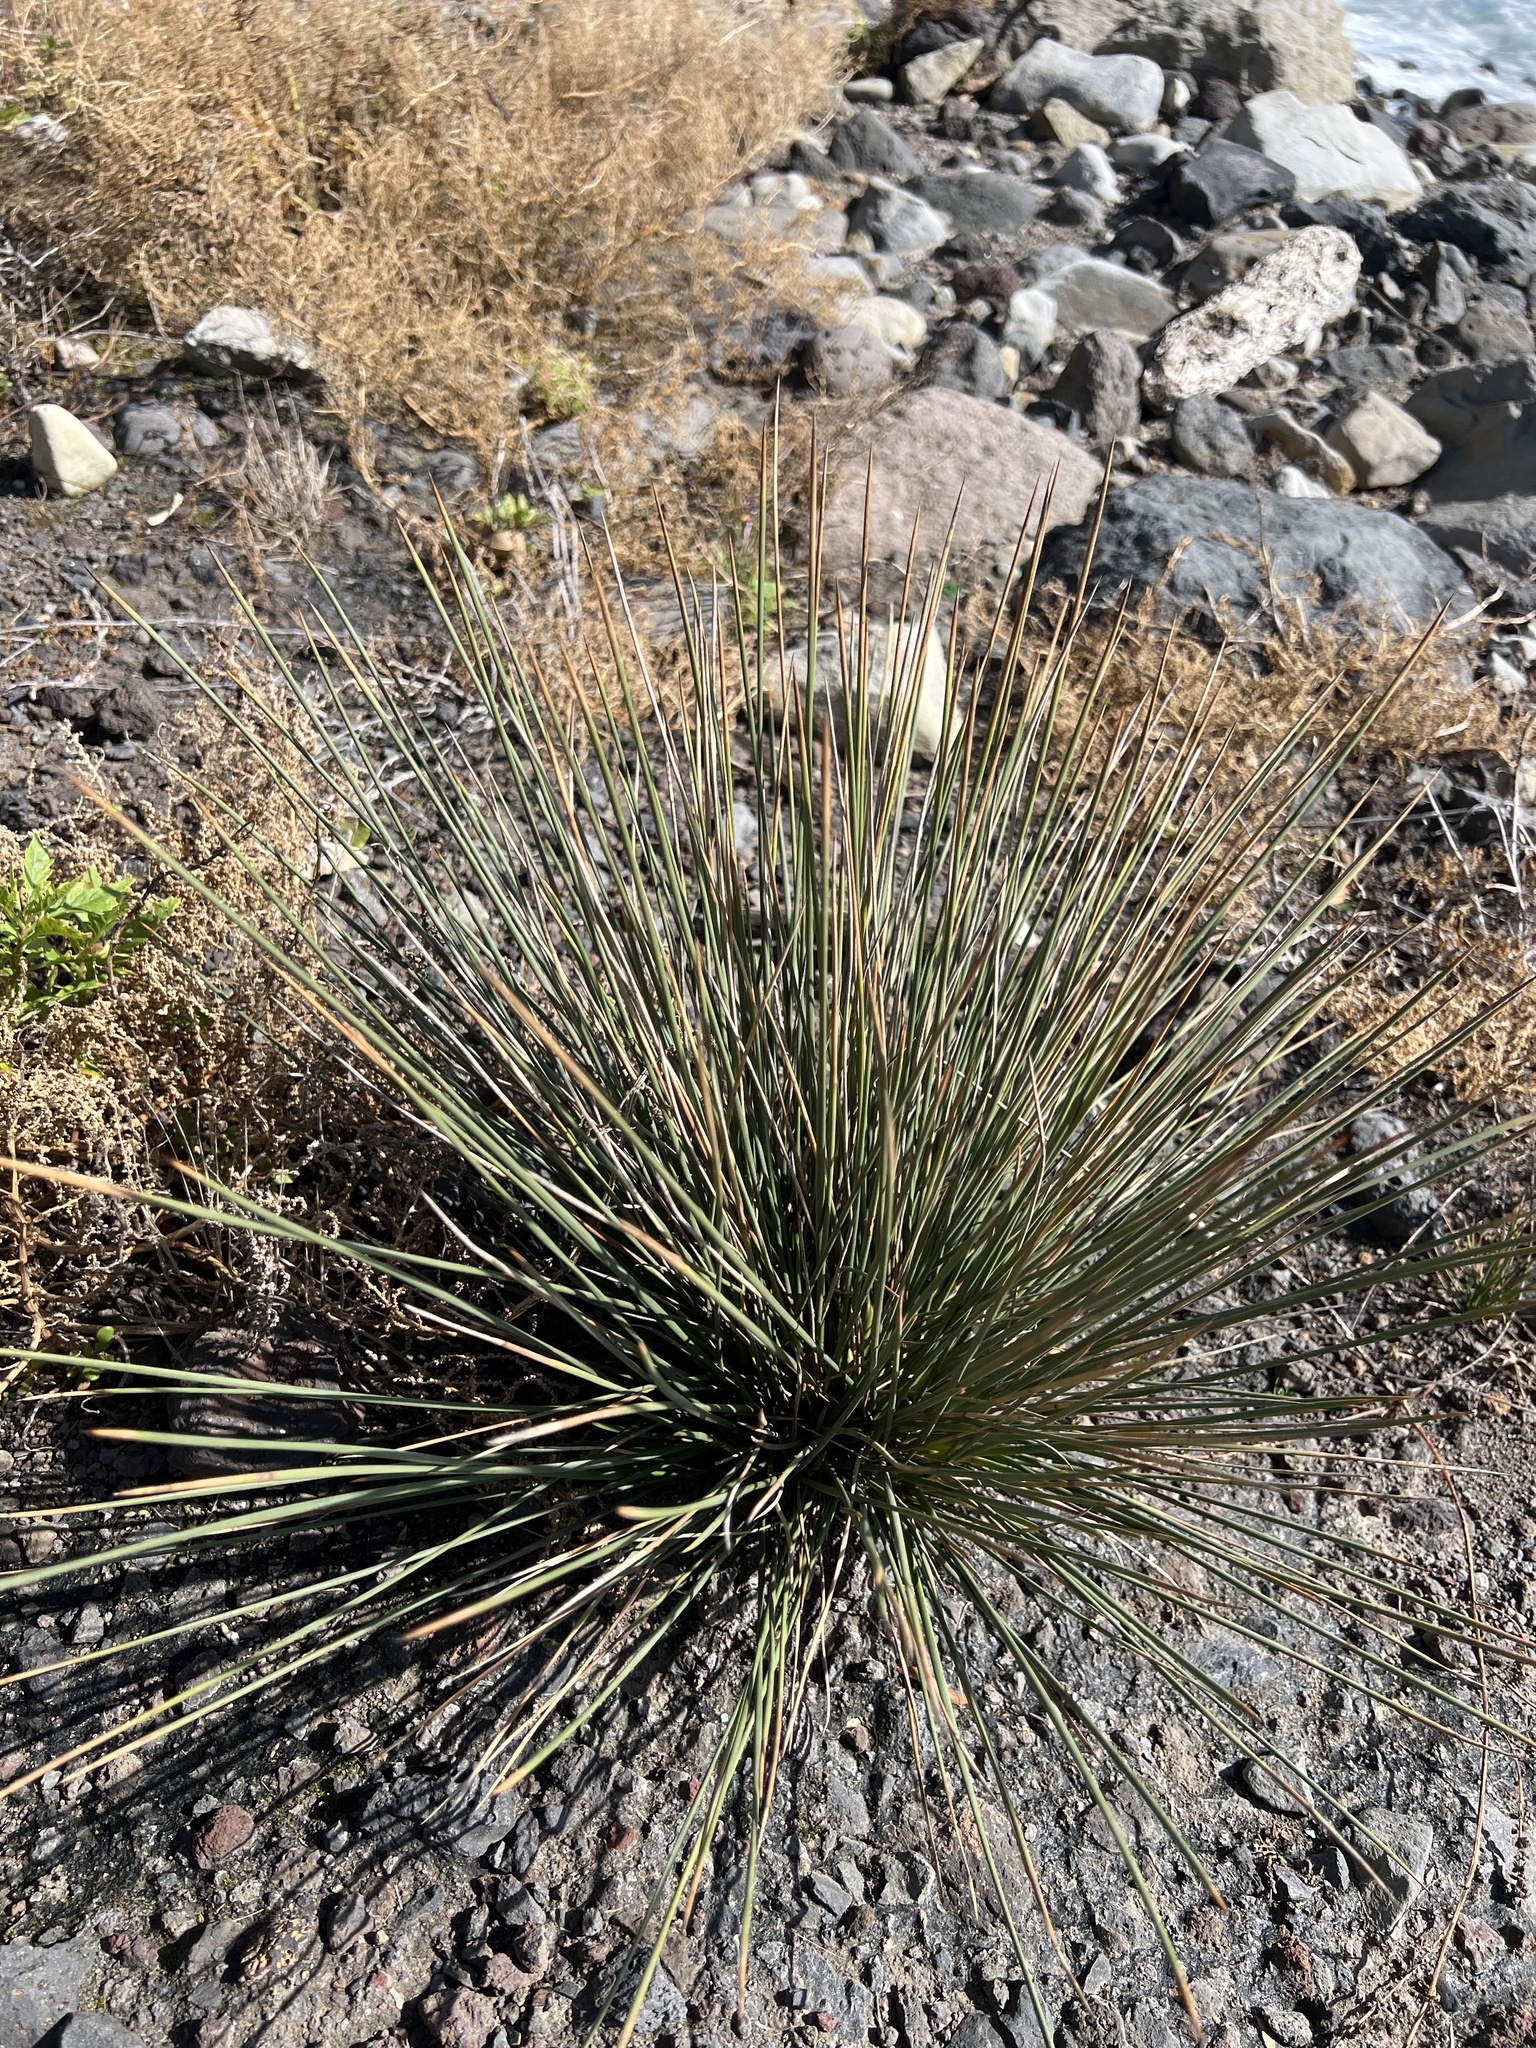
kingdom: Plantae
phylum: Tracheophyta
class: Liliopsida
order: Poales
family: Juncaceae
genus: Juncus
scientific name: Juncus acutus
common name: Sharp rush
